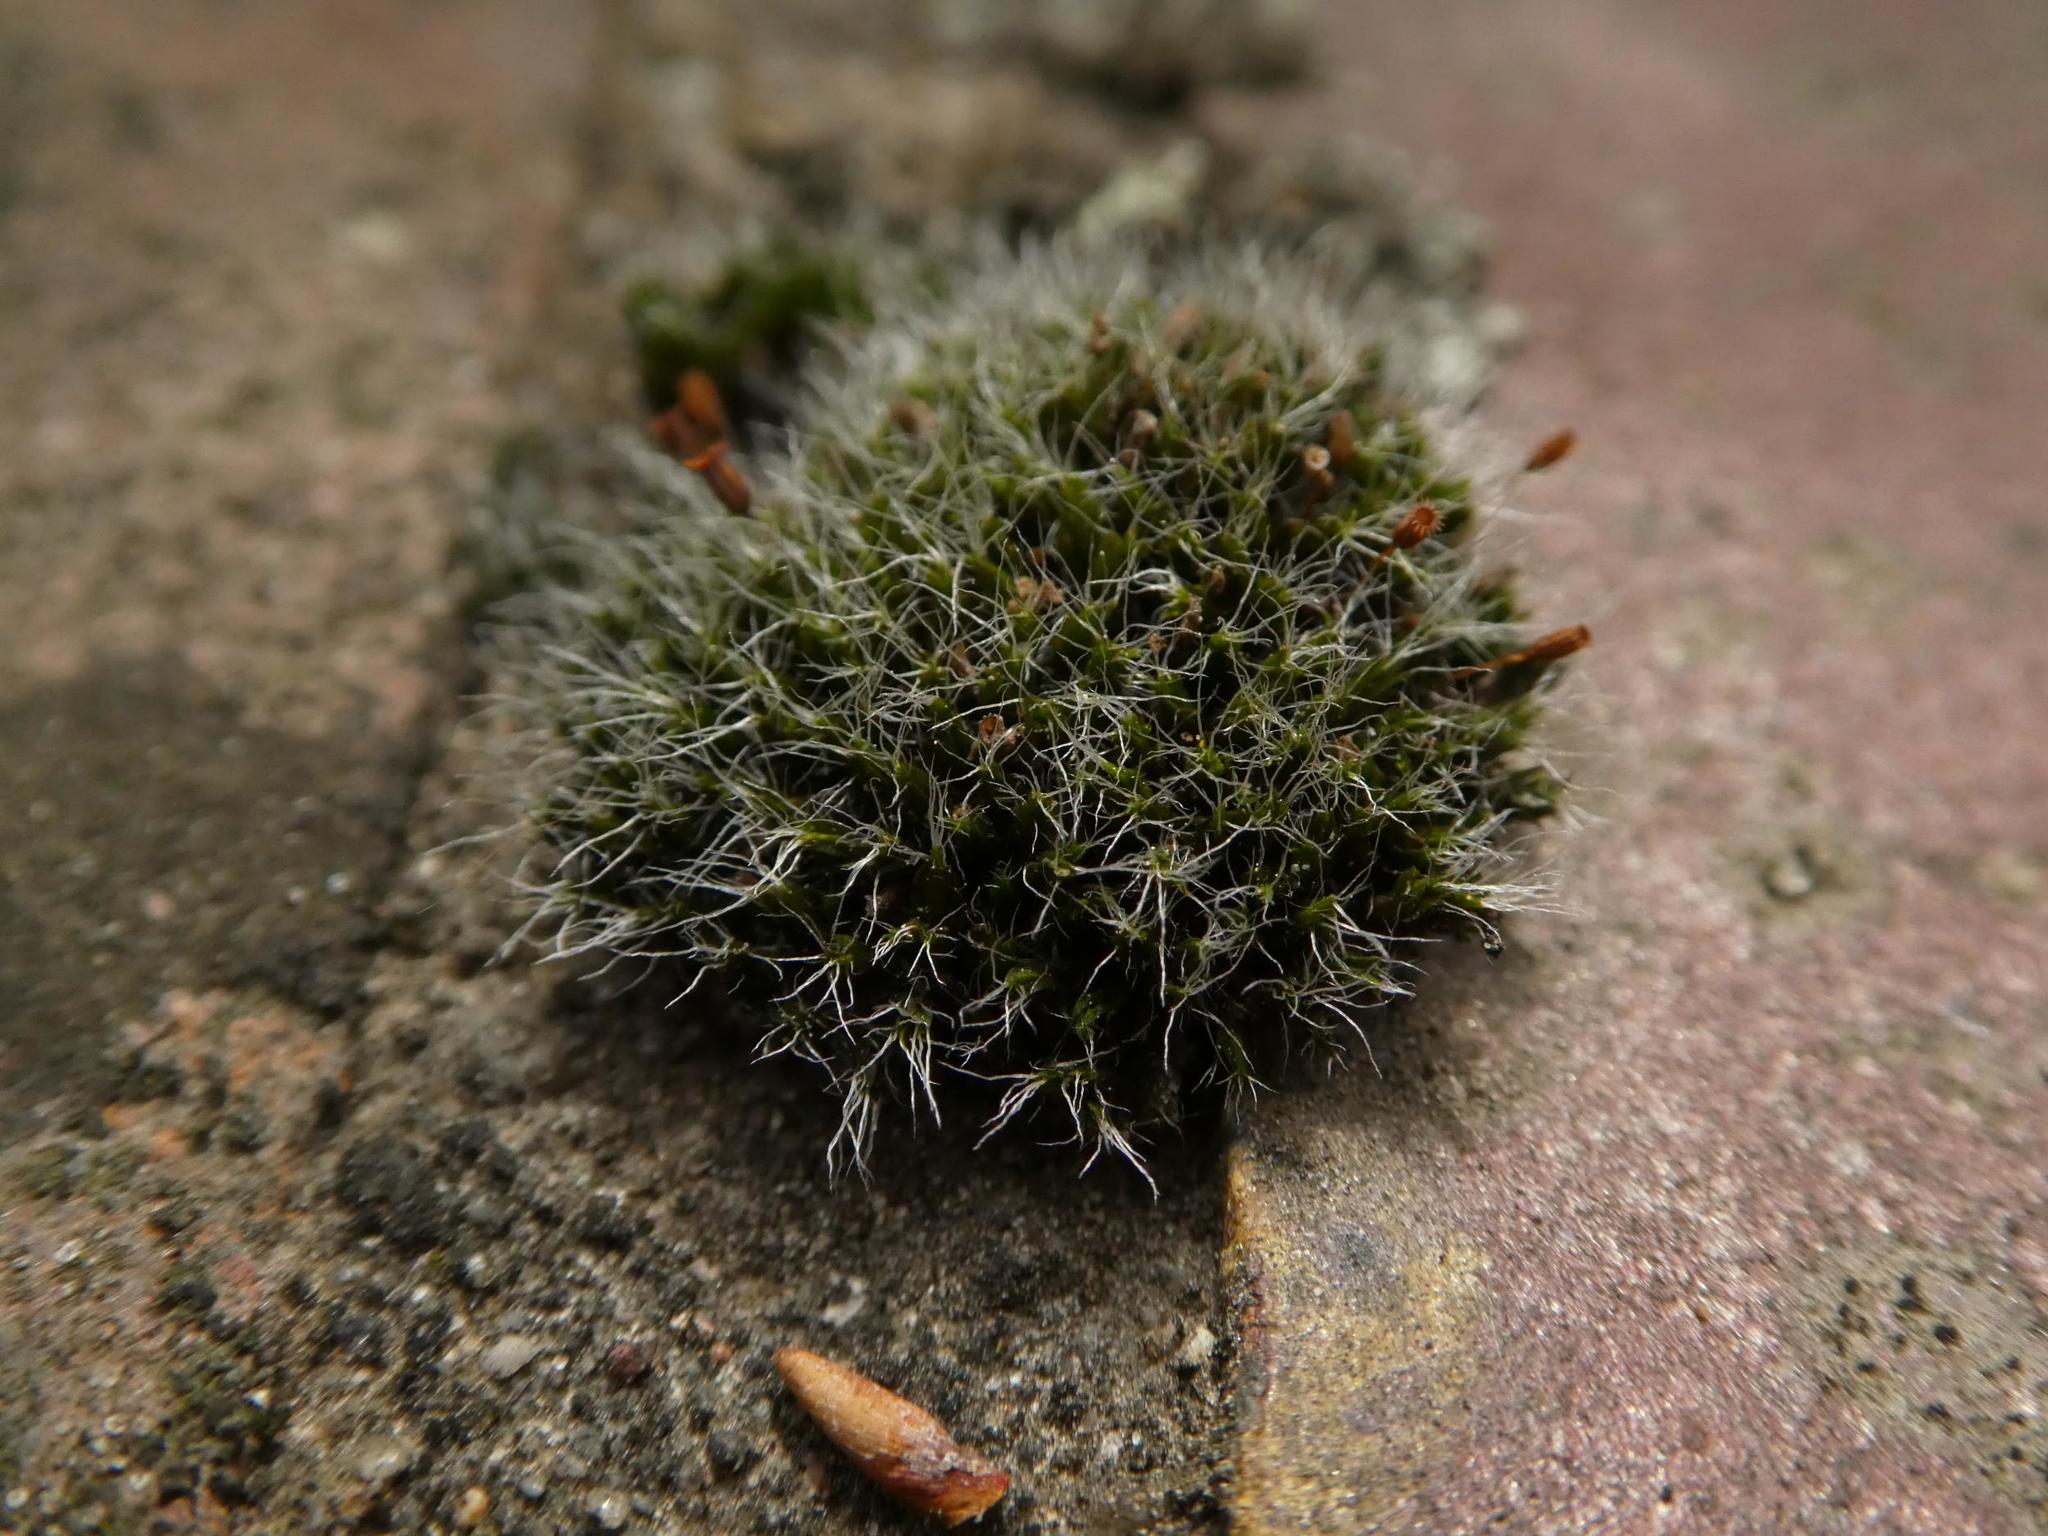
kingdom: Plantae
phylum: Bryophyta
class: Bryopsida
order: Grimmiales
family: Grimmiaceae
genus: Grimmia
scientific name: Grimmia pulvinata
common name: Grey-cushioned grimmia
